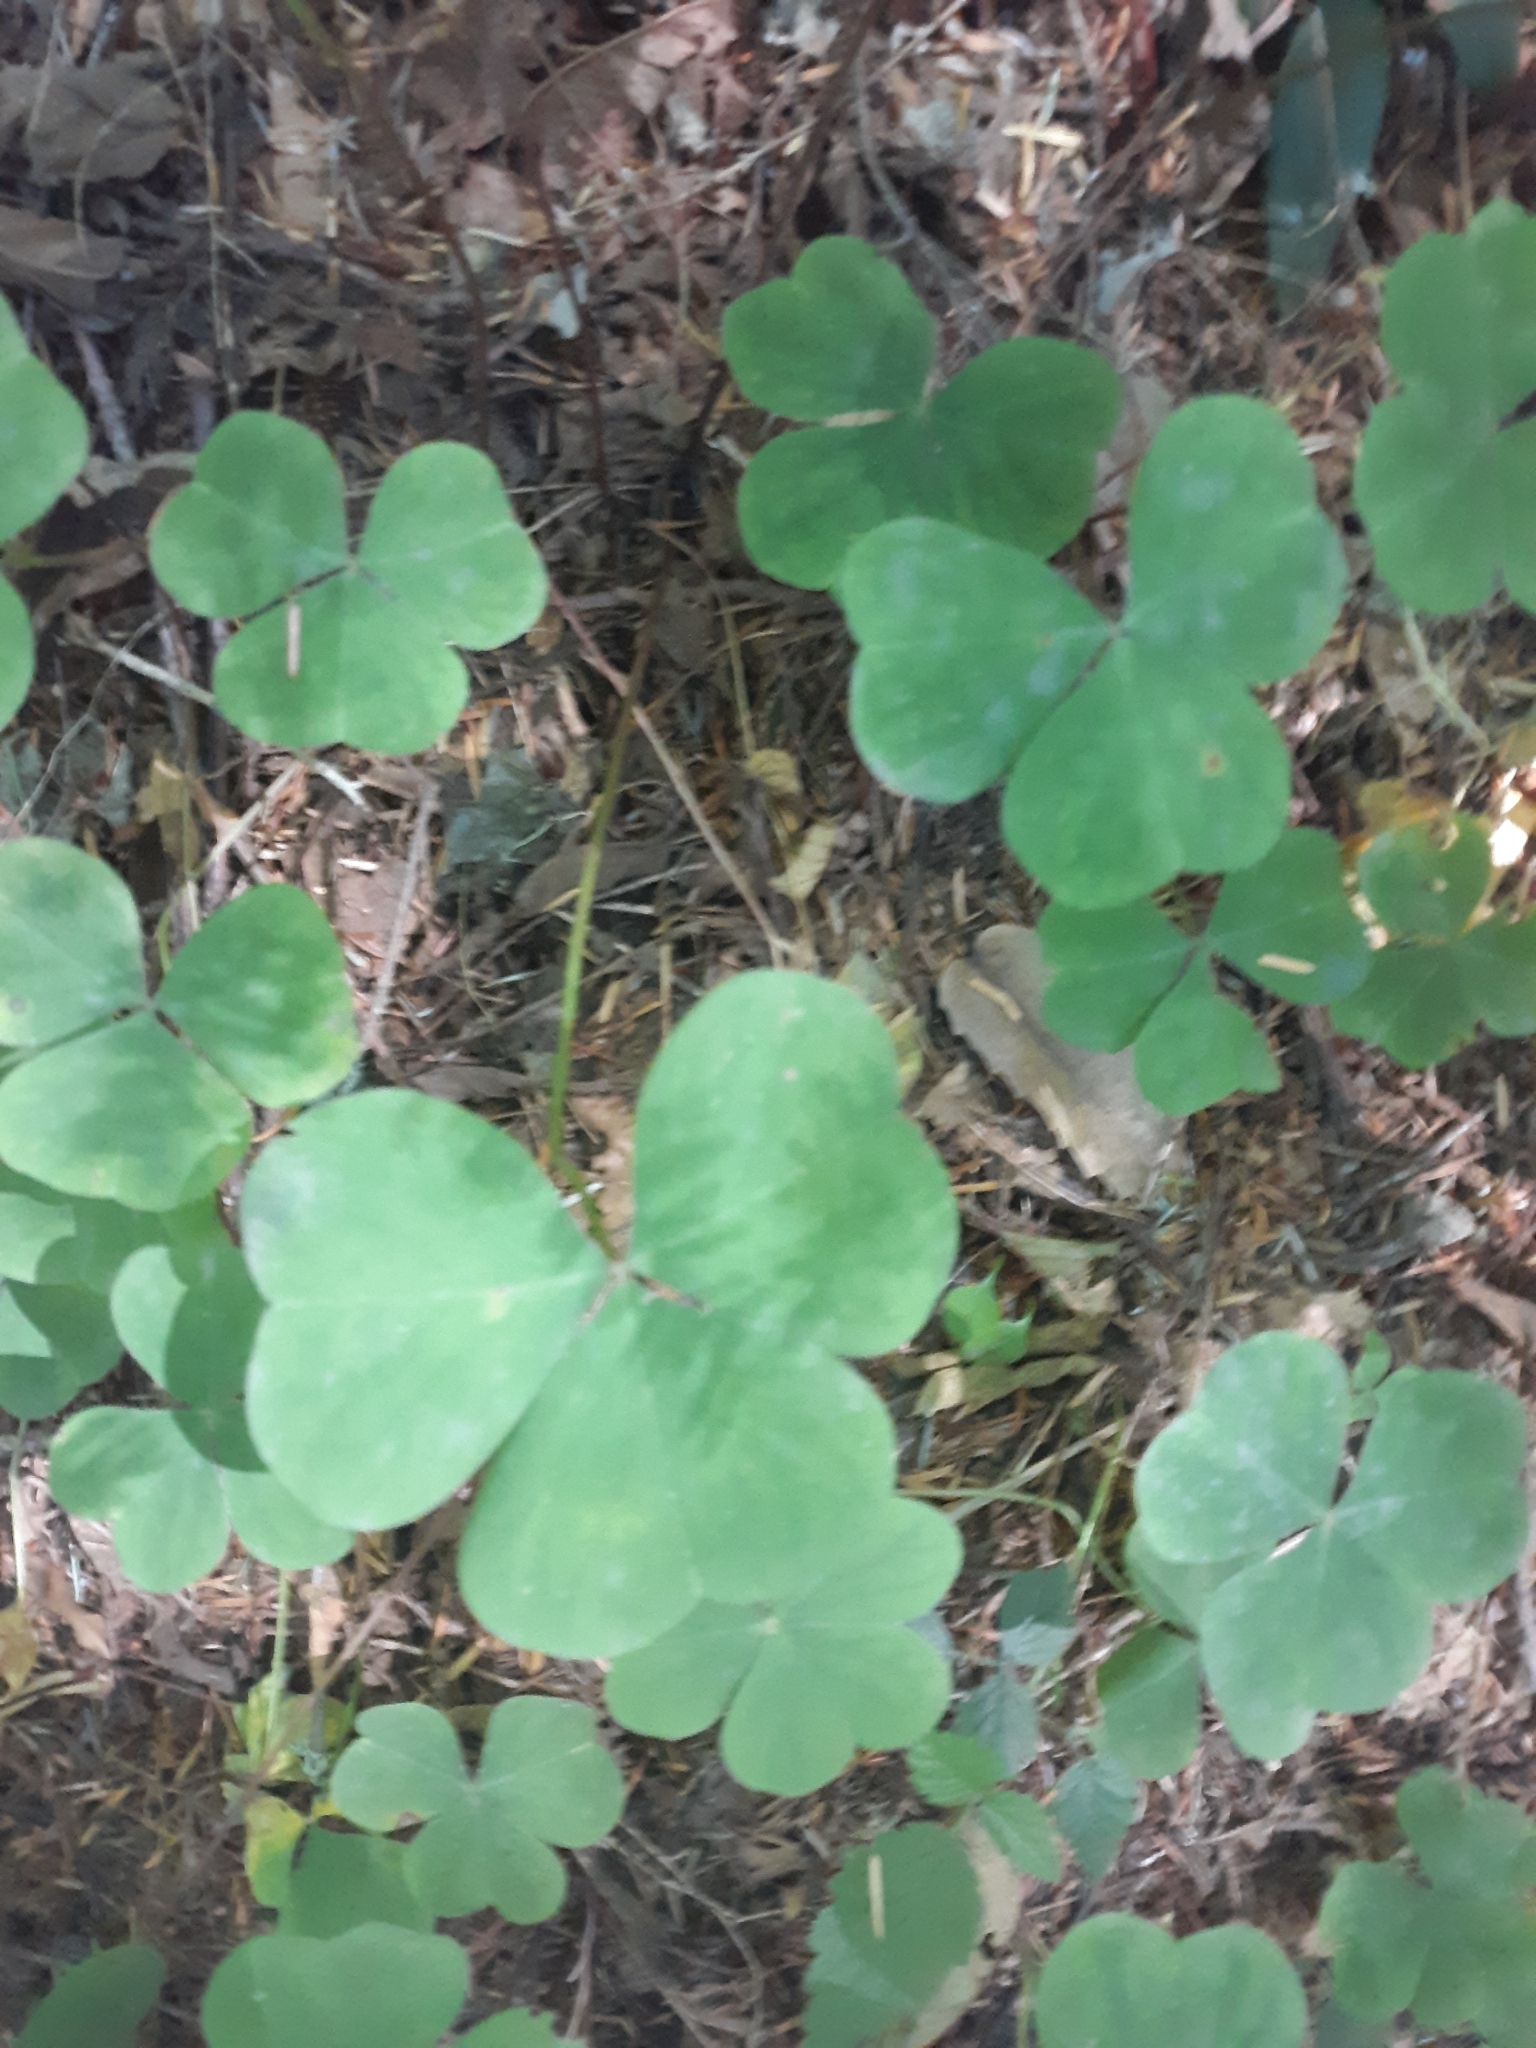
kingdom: Plantae
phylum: Tracheophyta
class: Magnoliopsida
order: Oxalidales
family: Oxalidaceae
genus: Oxalis
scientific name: Oxalis oregana
